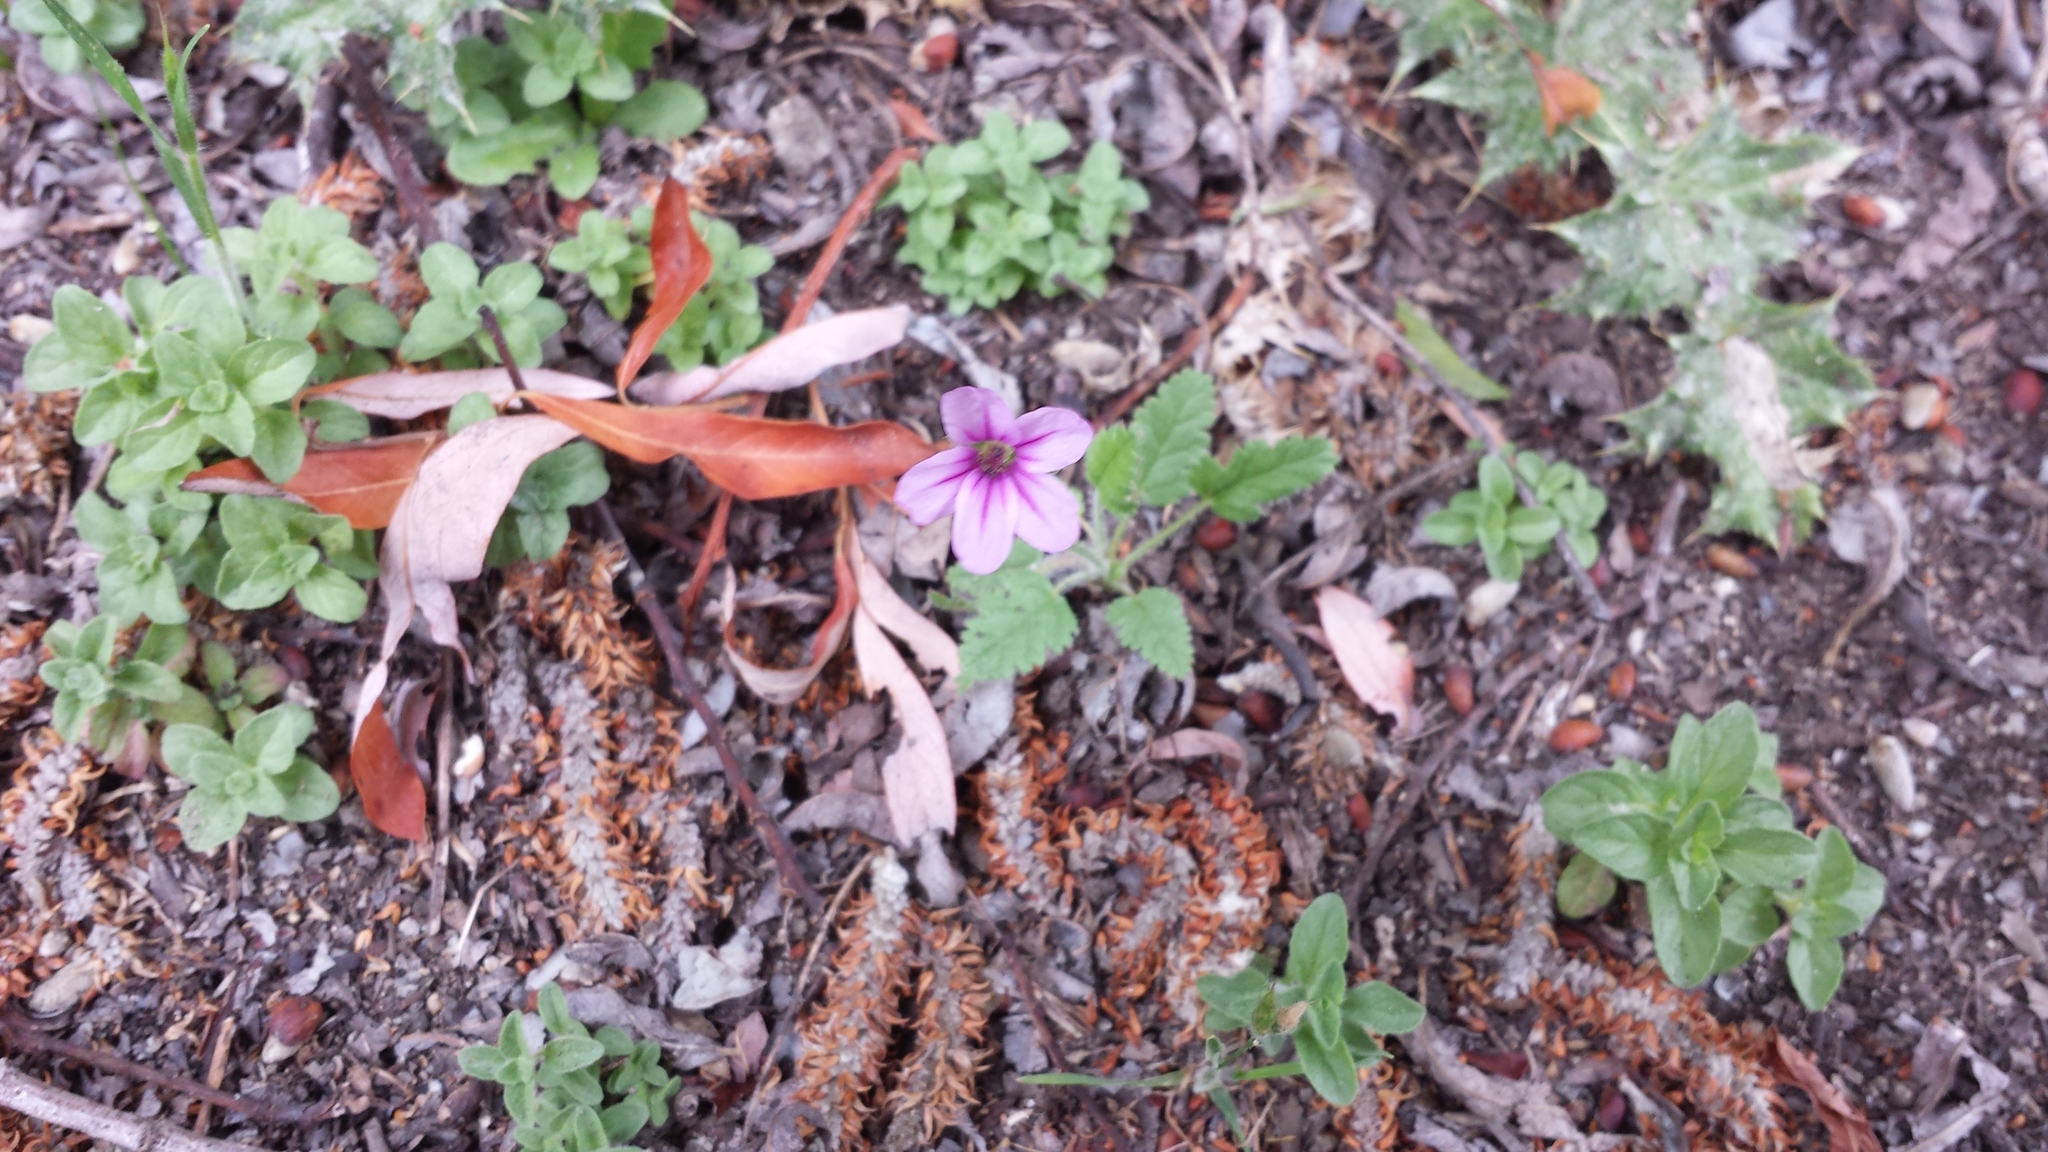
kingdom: Plantae
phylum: Tracheophyta
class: Magnoliopsida
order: Geraniales
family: Geraniaceae
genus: Erodium
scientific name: Erodium botrys
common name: Mediterranean stork's-bill
